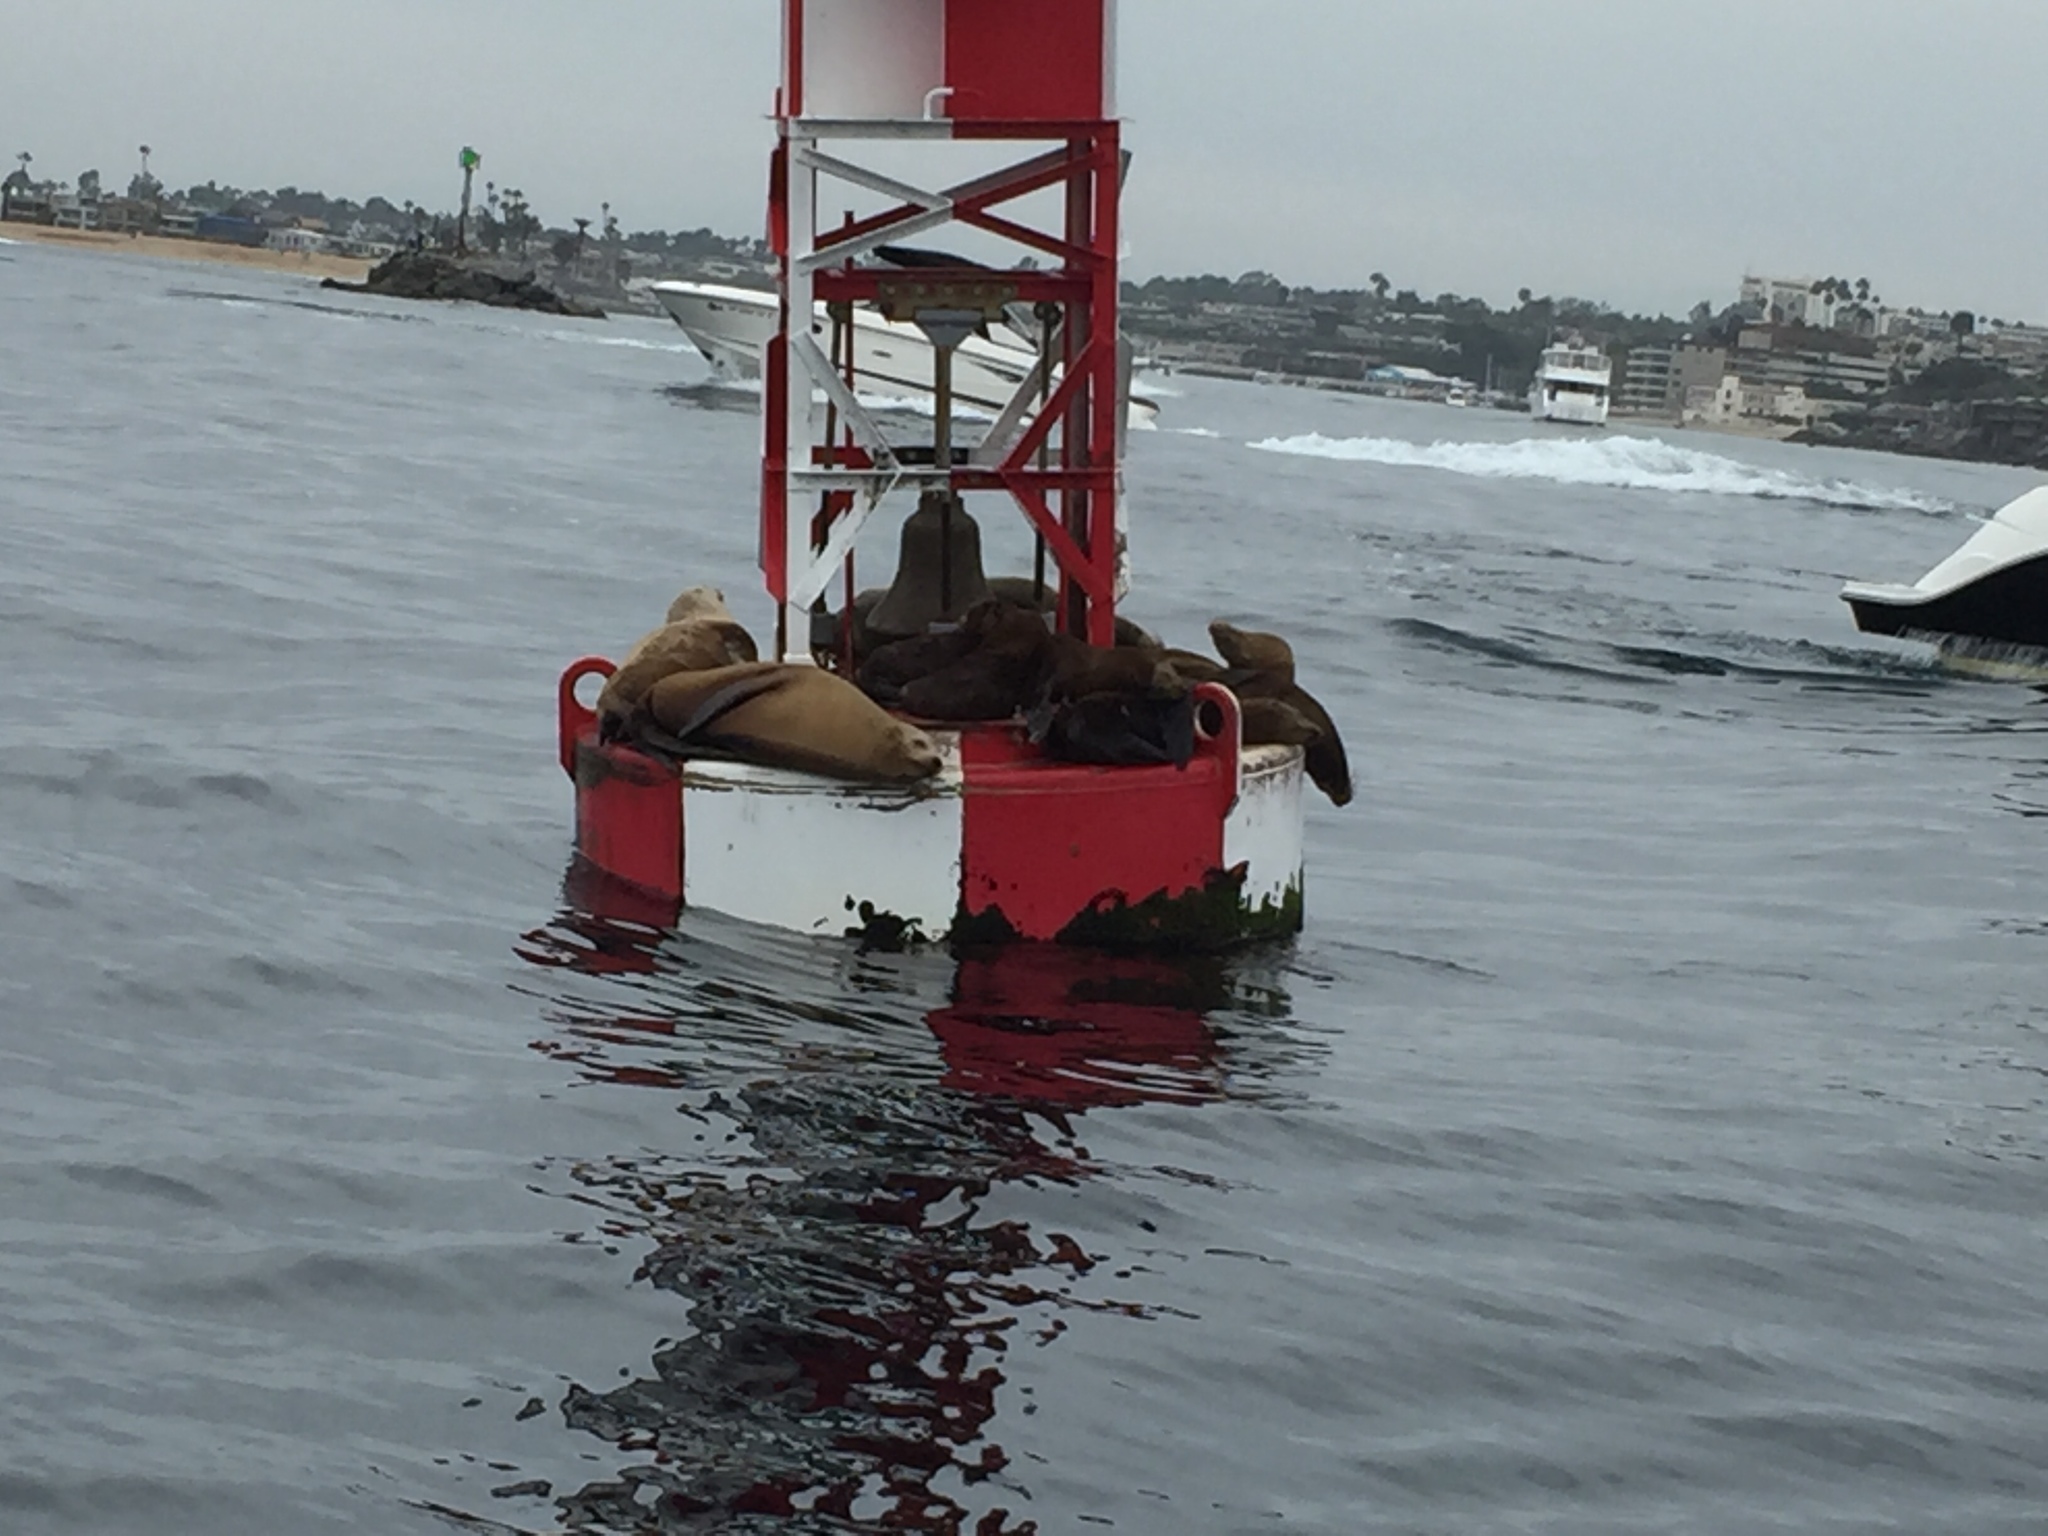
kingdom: Animalia
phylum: Chordata
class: Mammalia
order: Carnivora
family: Otariidae
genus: Zalophus
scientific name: Zalophus californianus
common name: California sea lion
